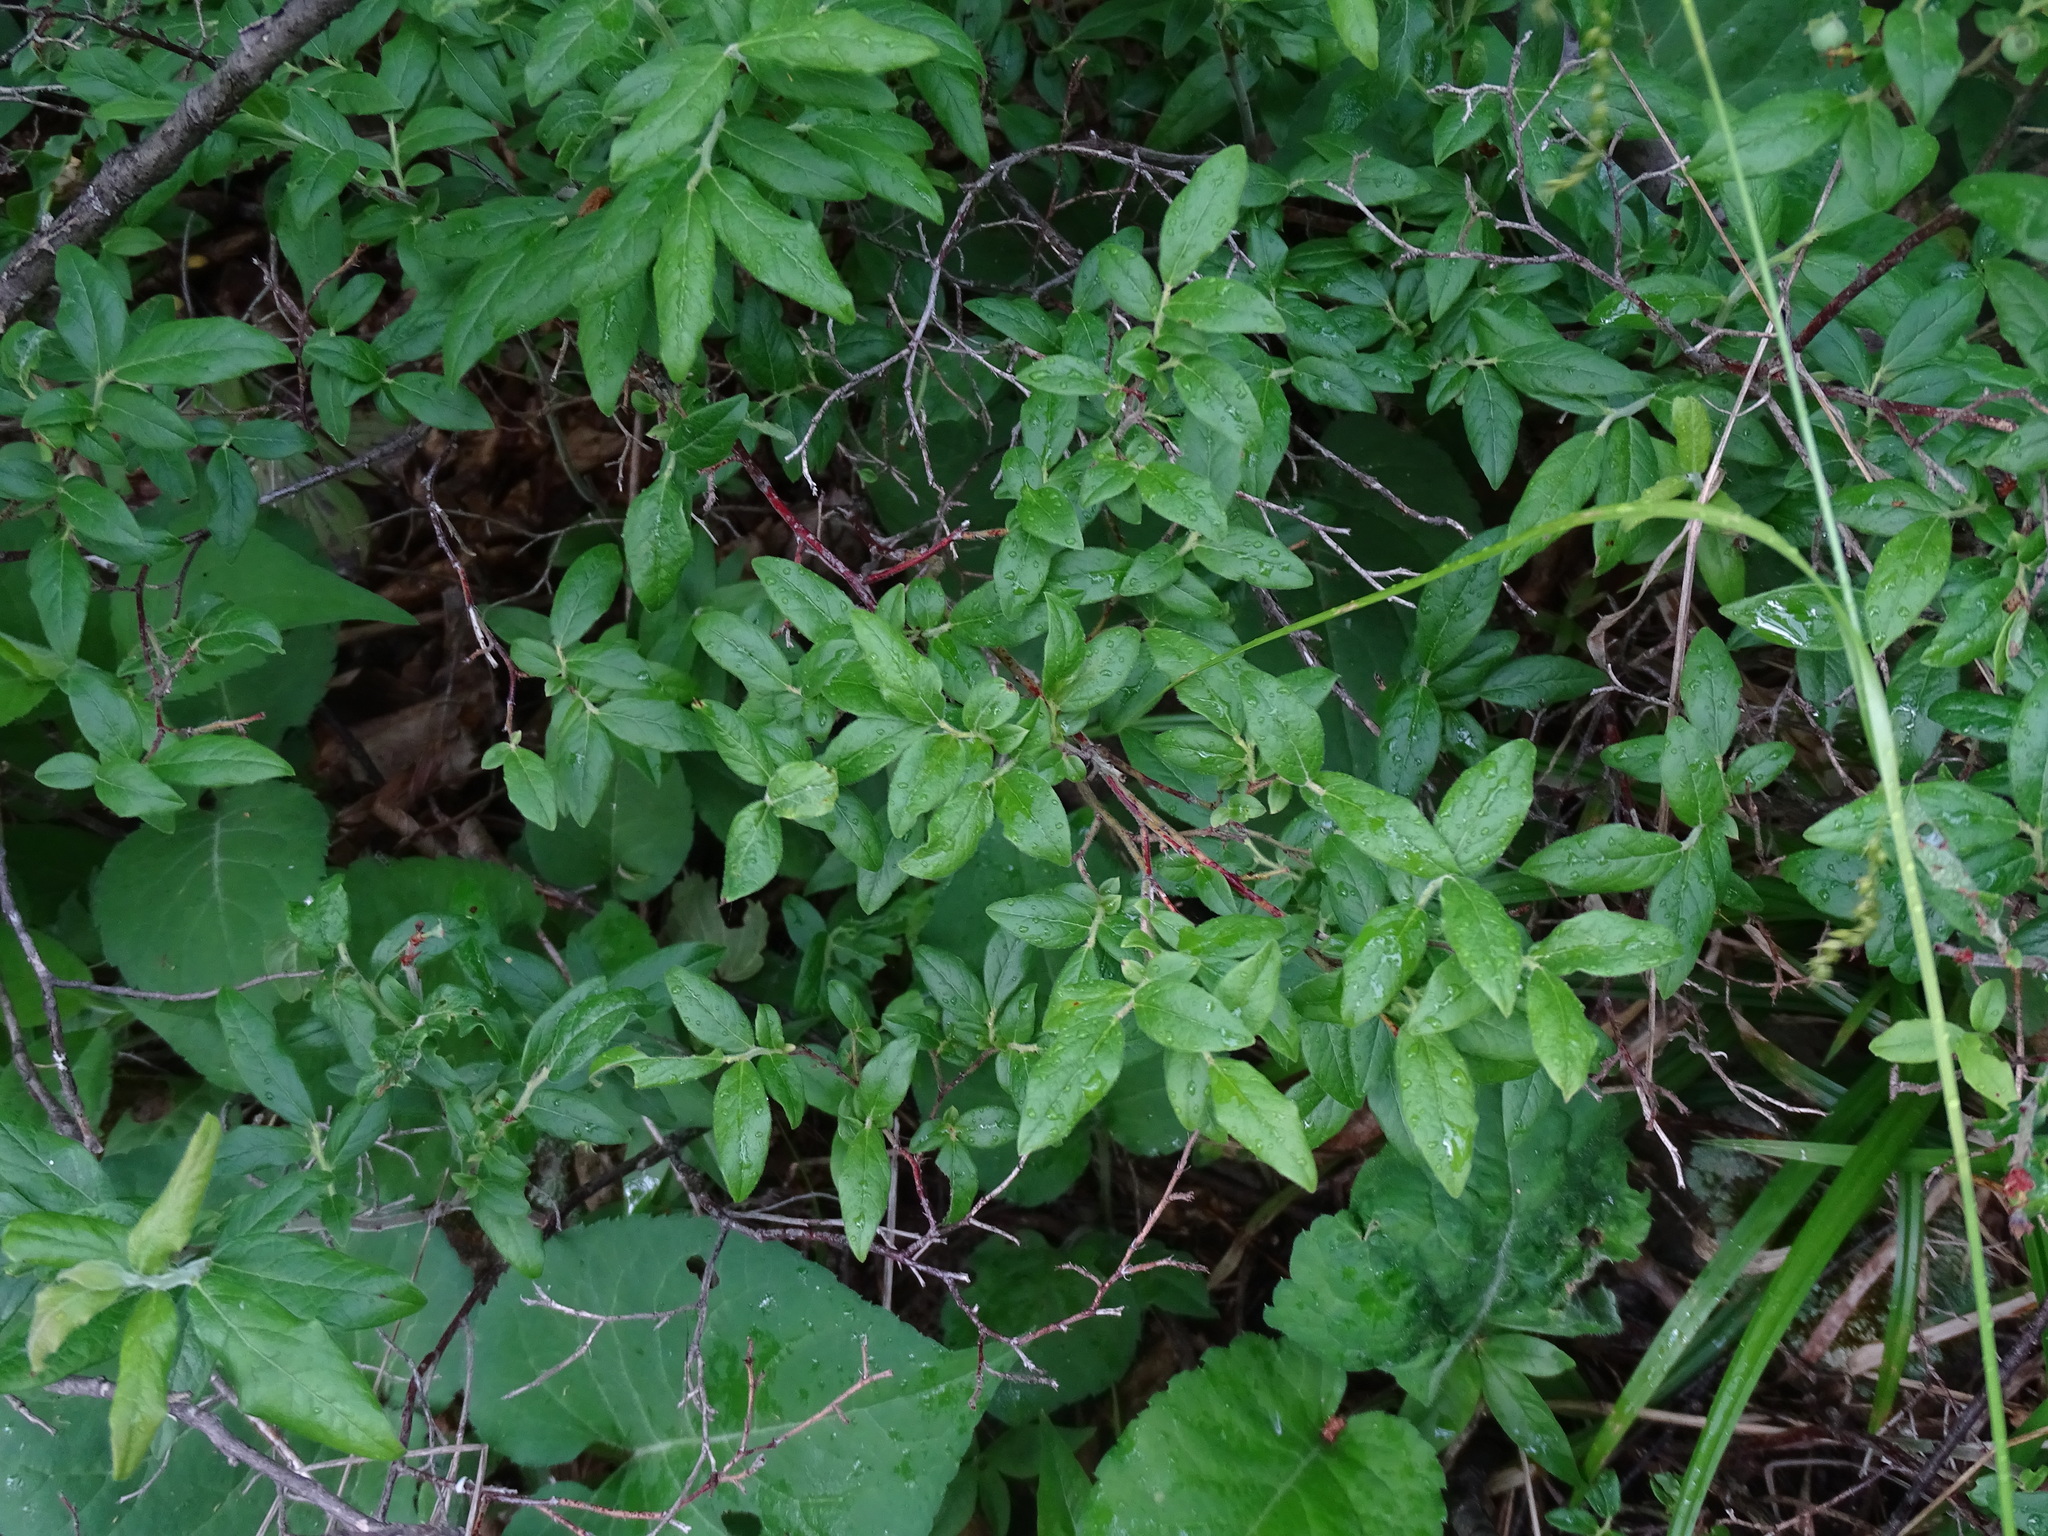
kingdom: Plantae
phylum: Tracheophyta
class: Magnoliopsida
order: Ericales
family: Ericaceae
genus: Vaccinium
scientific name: Vaccinium myrtilloides
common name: Canada blueberry
